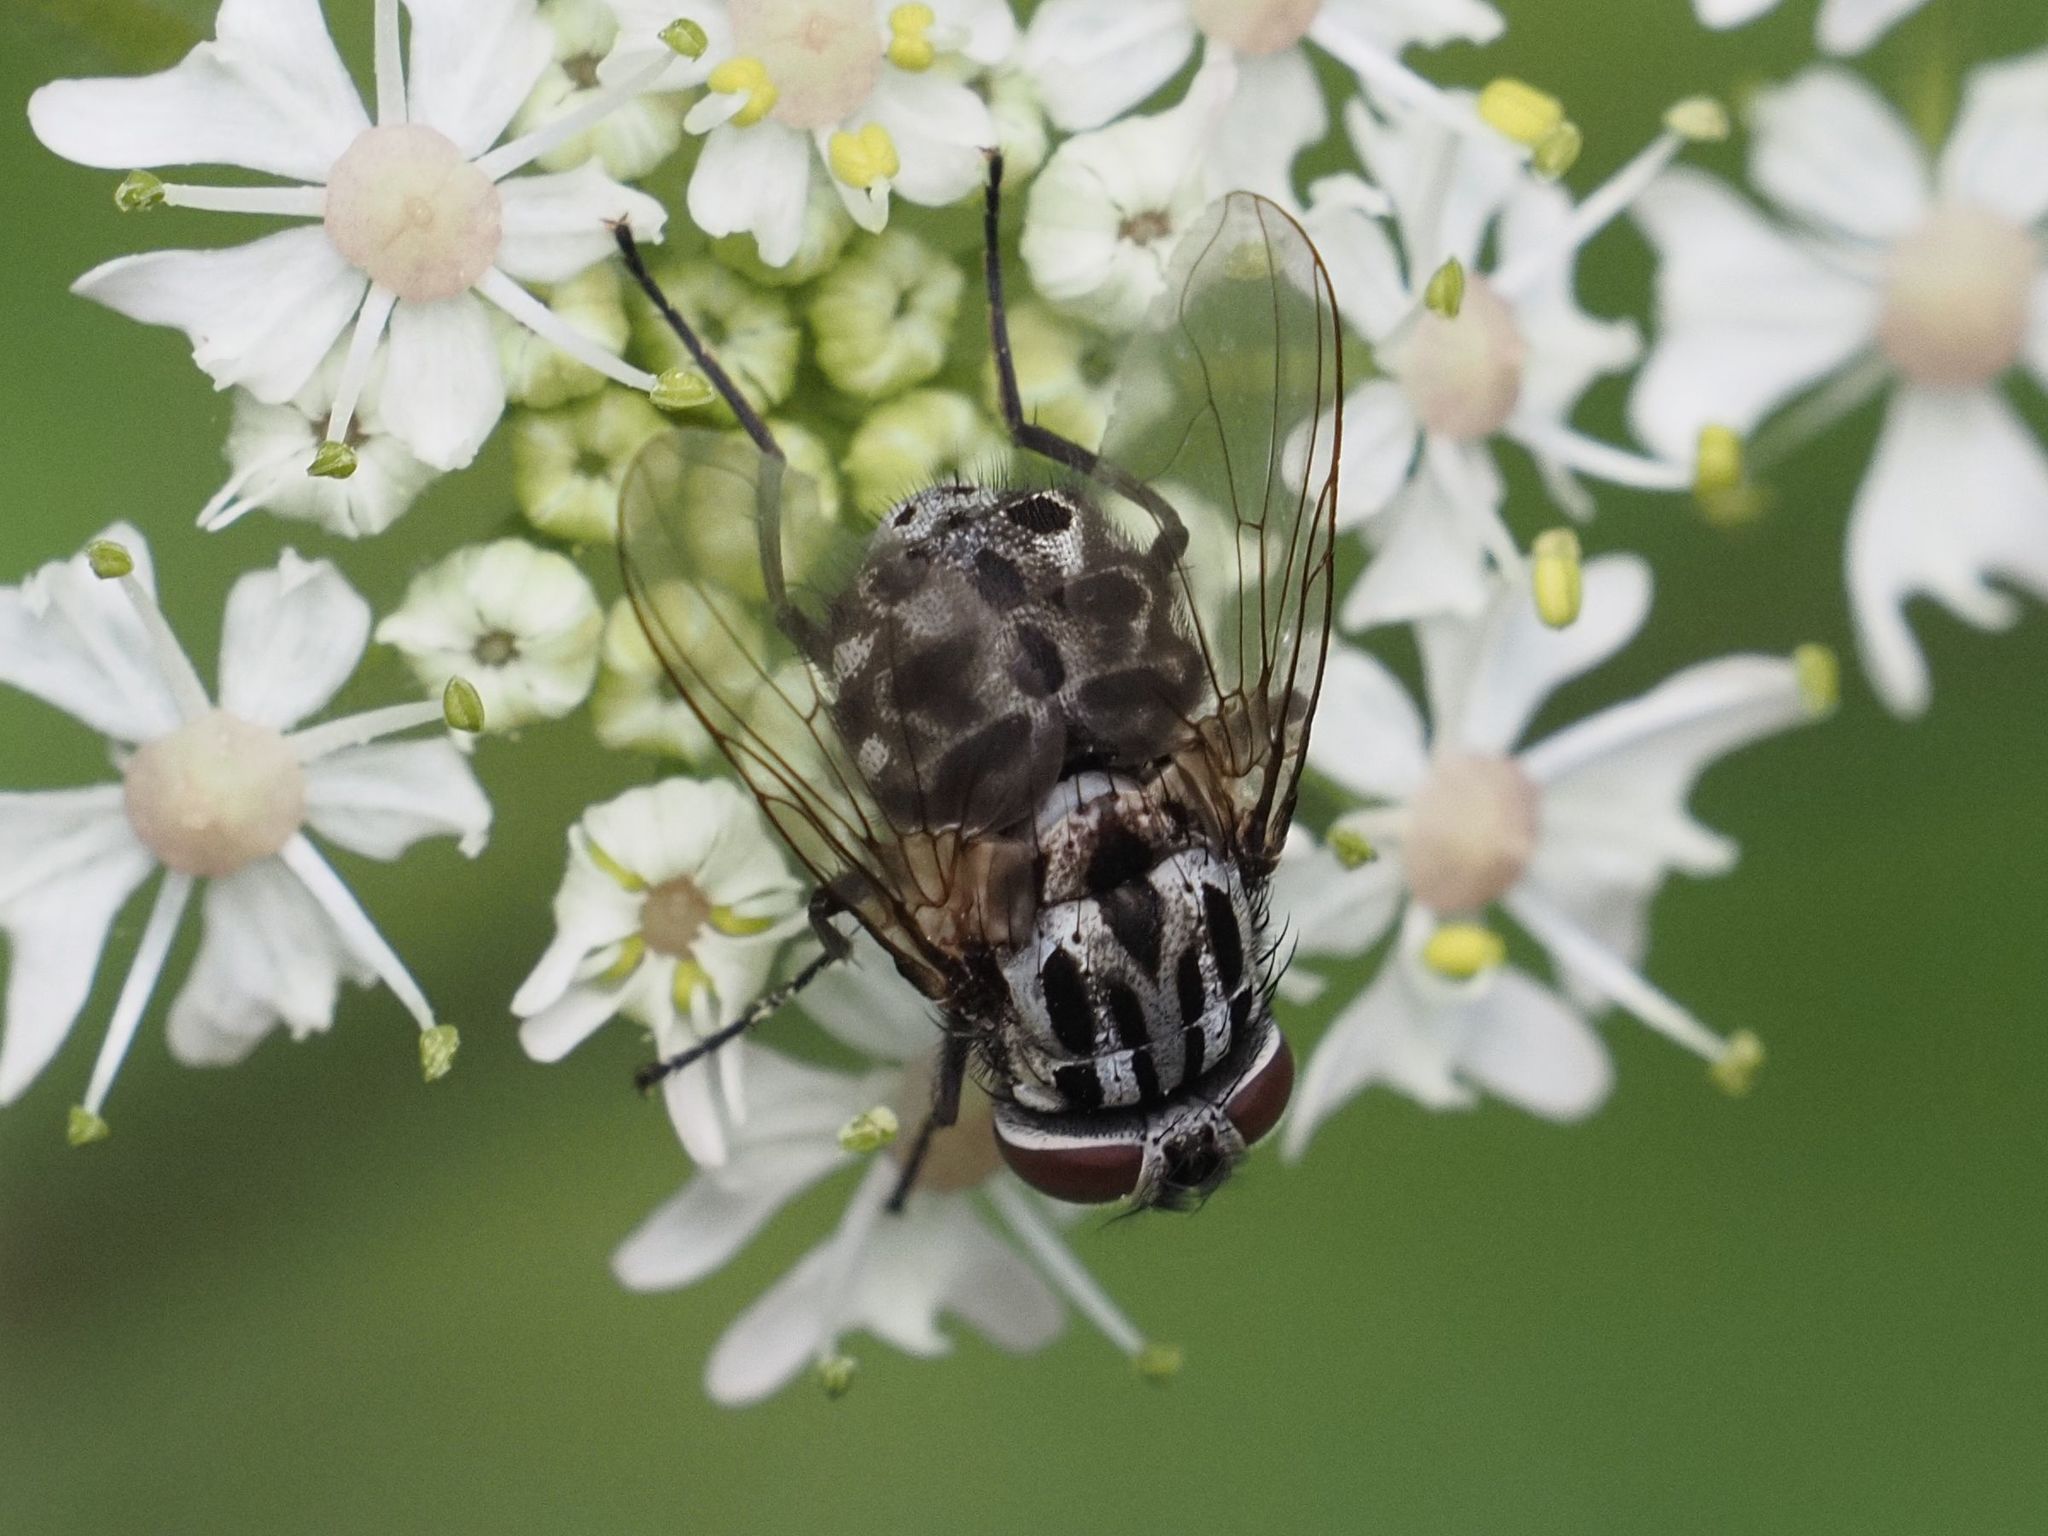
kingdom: Animalia
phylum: Arthropoda
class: Insecta
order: Diptera
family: Muscidae
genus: Graphomya
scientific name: Graphomya maculata
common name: Muscid fly
